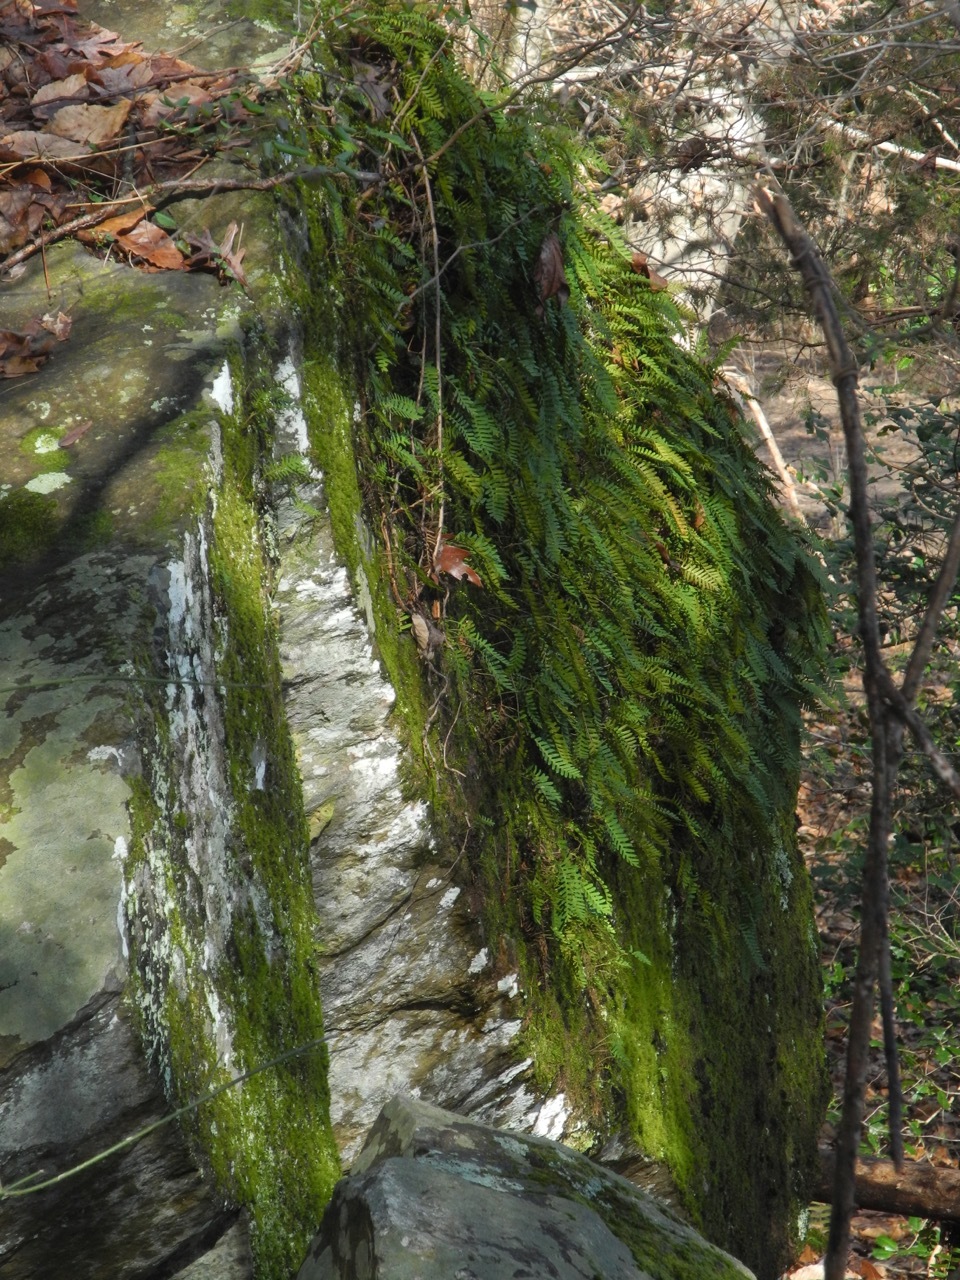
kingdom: Plantae
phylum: Tracheophyta
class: Polypodiopsida
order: Polypodiales
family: Polypodiaceae
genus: Pleopeltis
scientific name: Pleopeltis michauxiana
